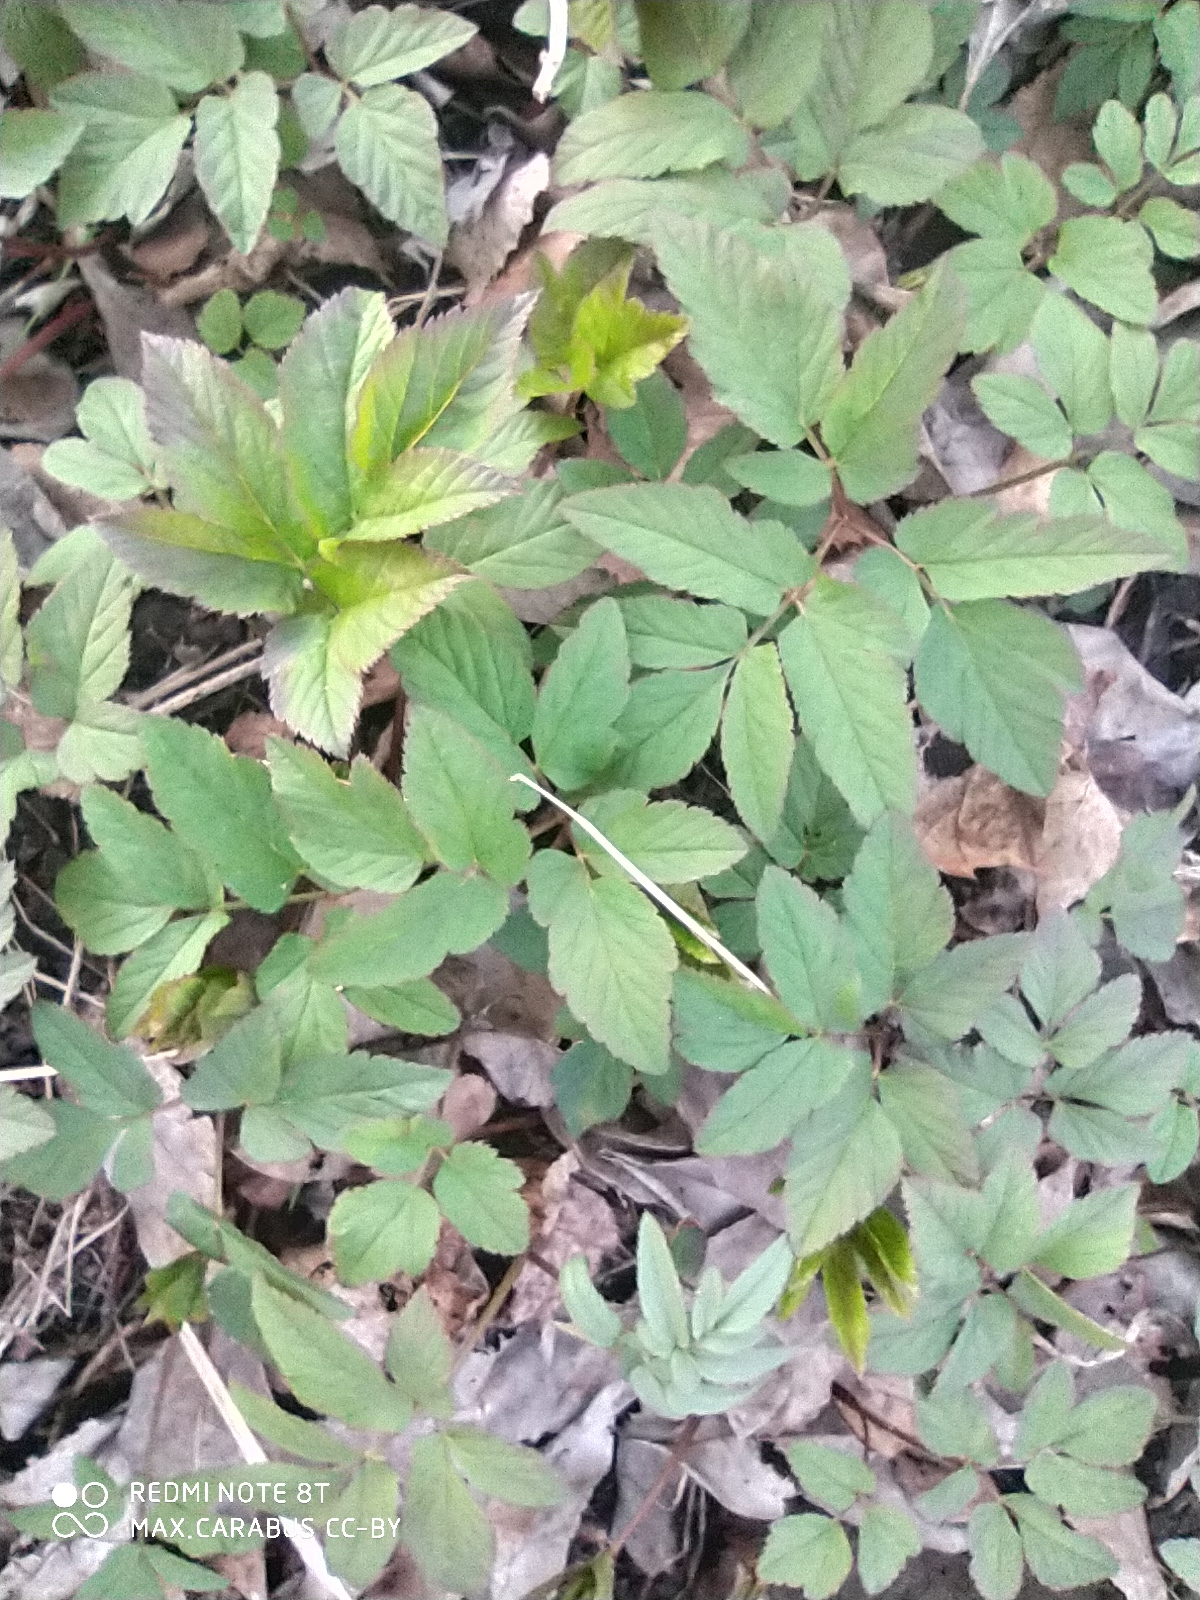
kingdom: Plantae
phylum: Tracheophyta
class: Magnoliopsida
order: Apiales
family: Apiaceae
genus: Aegopodium
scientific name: Aegopodium podagraria
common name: Ground-elder
